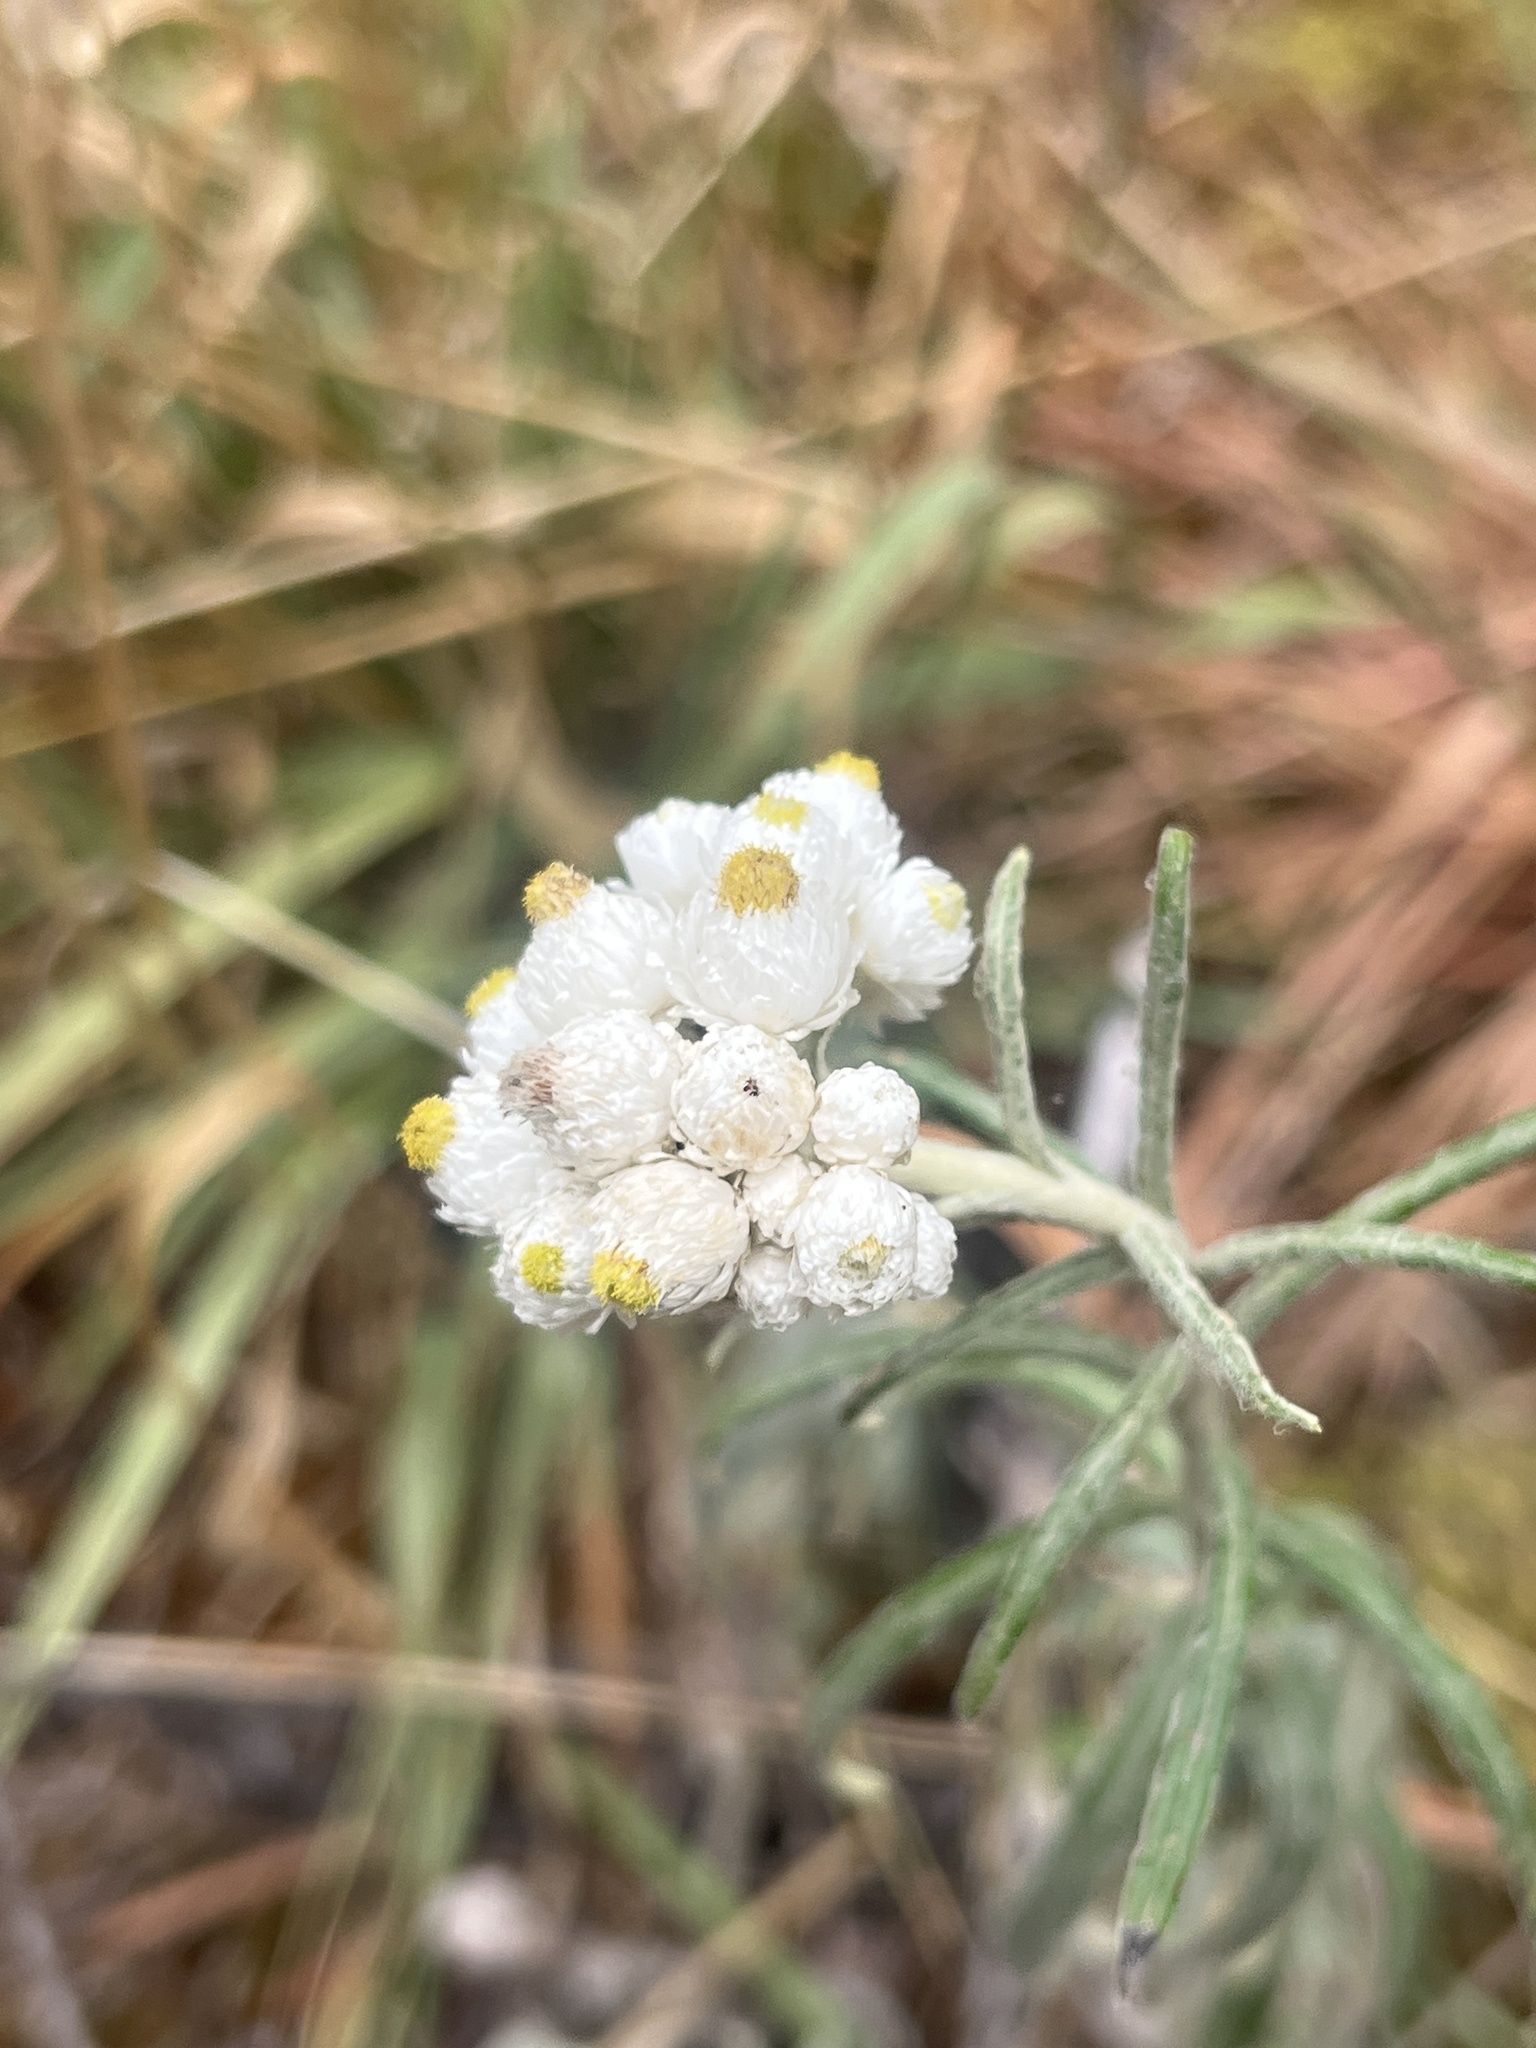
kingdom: Plantae
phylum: Tracheophyta
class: Magnoliopsida
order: Asterales
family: Asteraceae
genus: Anaphalis
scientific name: Anaphalis margaritacea
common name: Pearly everlasting
